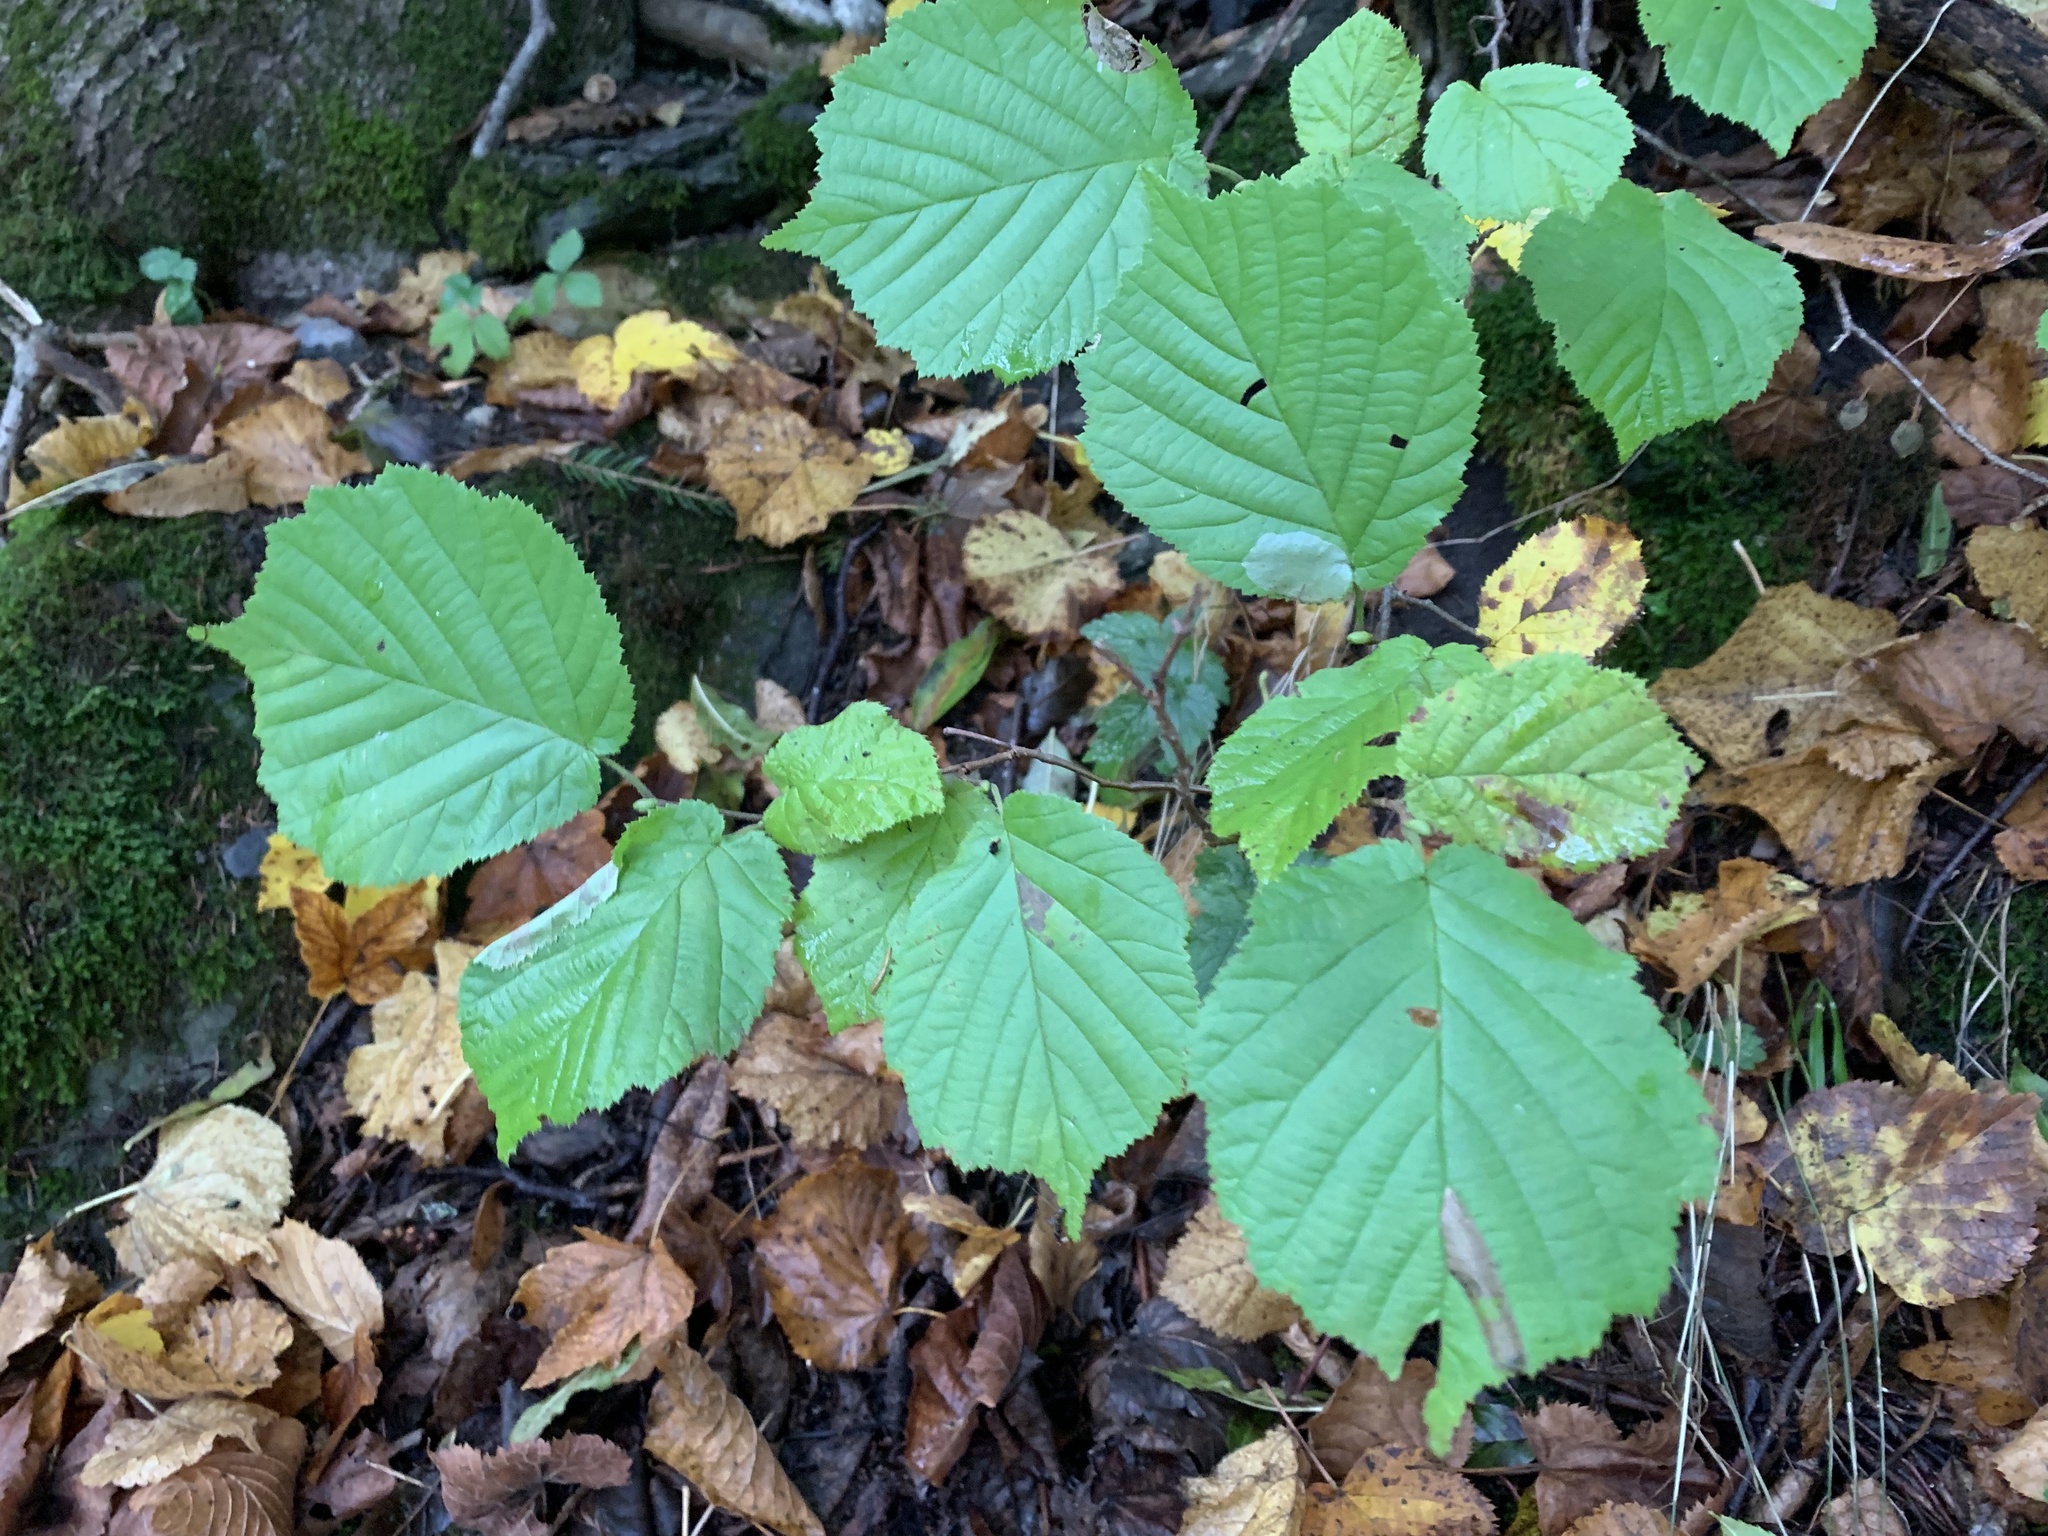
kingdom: Animalia
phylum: Arthropoda
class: Insecta
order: Lepidoptera
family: Gracillariidae
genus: Phyllonorycter
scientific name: Phyllonorycter coryli
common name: Nut-leaf blister moth
